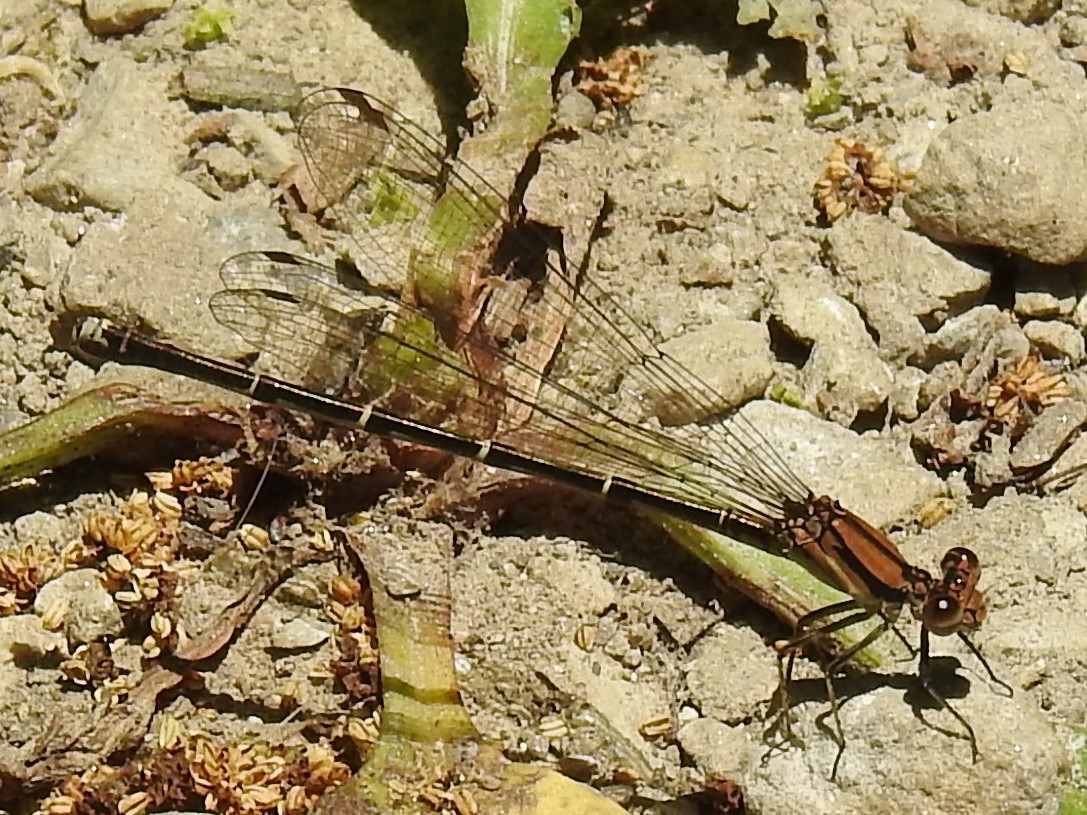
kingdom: Animalia
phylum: Arthropoda
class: Insecta
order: Odonata
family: Coenagrionidae
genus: Argia
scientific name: Argia tibialis
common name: Blue-tipped dancer
